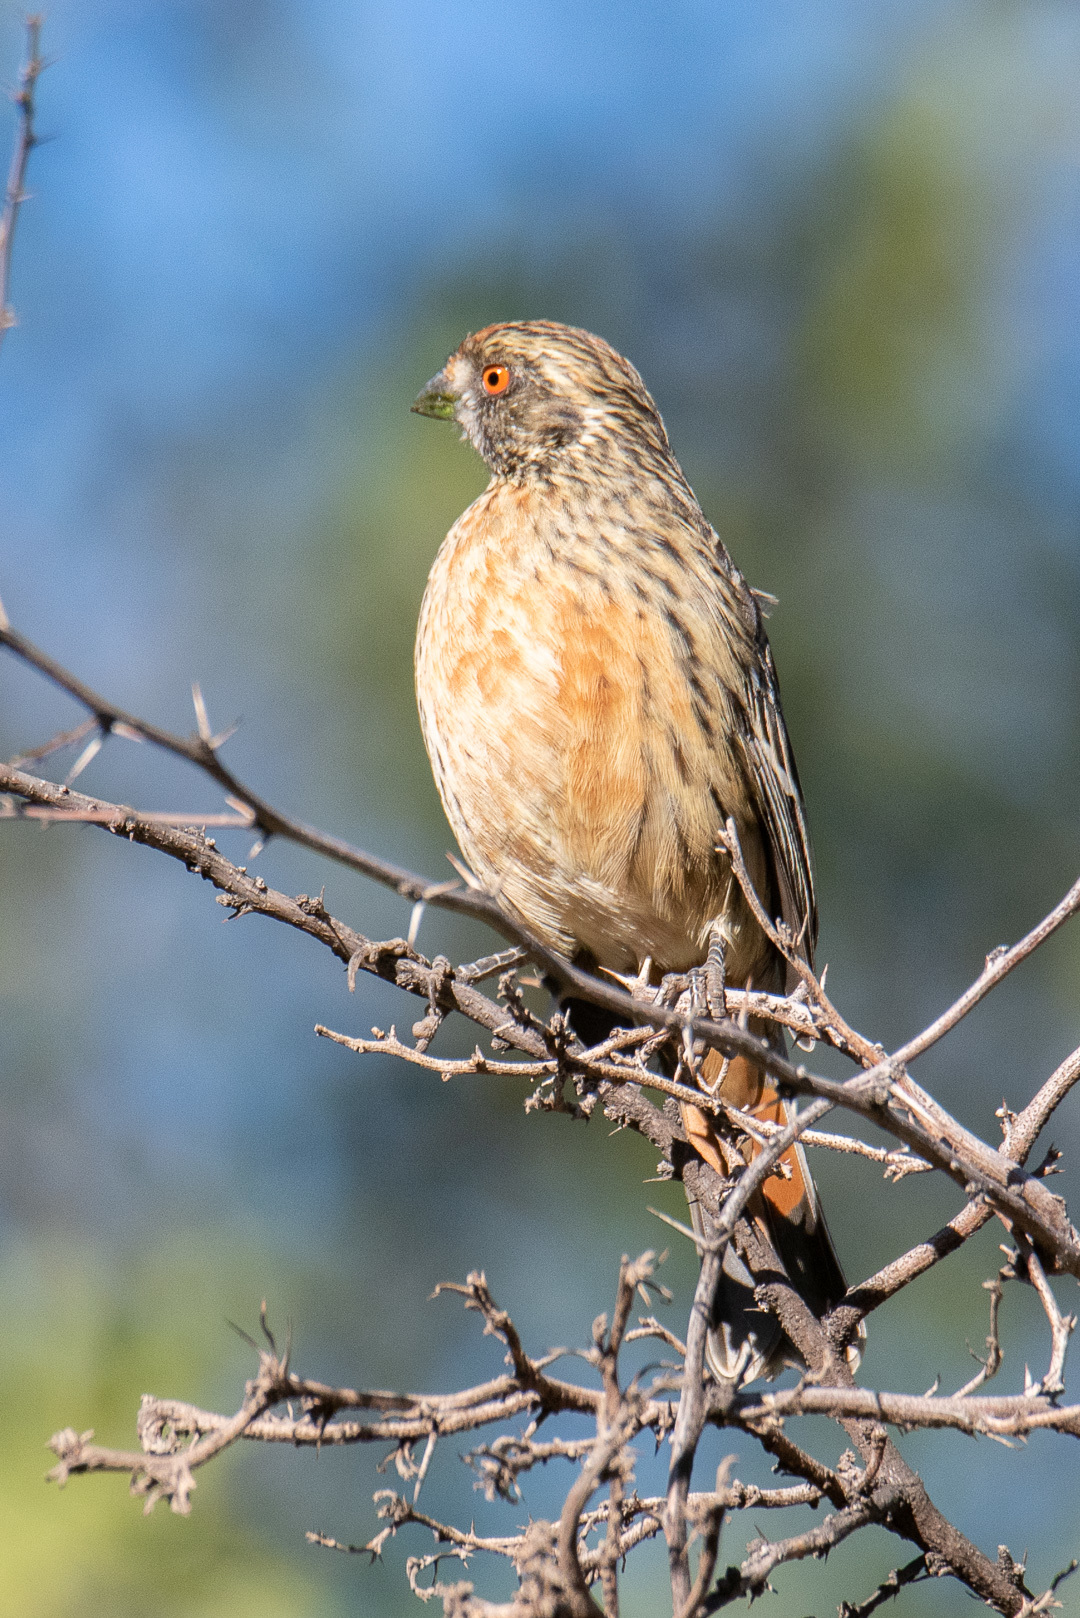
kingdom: Animalia
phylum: Chordata
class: Aves
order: Passeriformes
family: Cotingidae
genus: Phytotoma
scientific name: Phytotoma rara
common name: Rufous-tailed plantcutter
